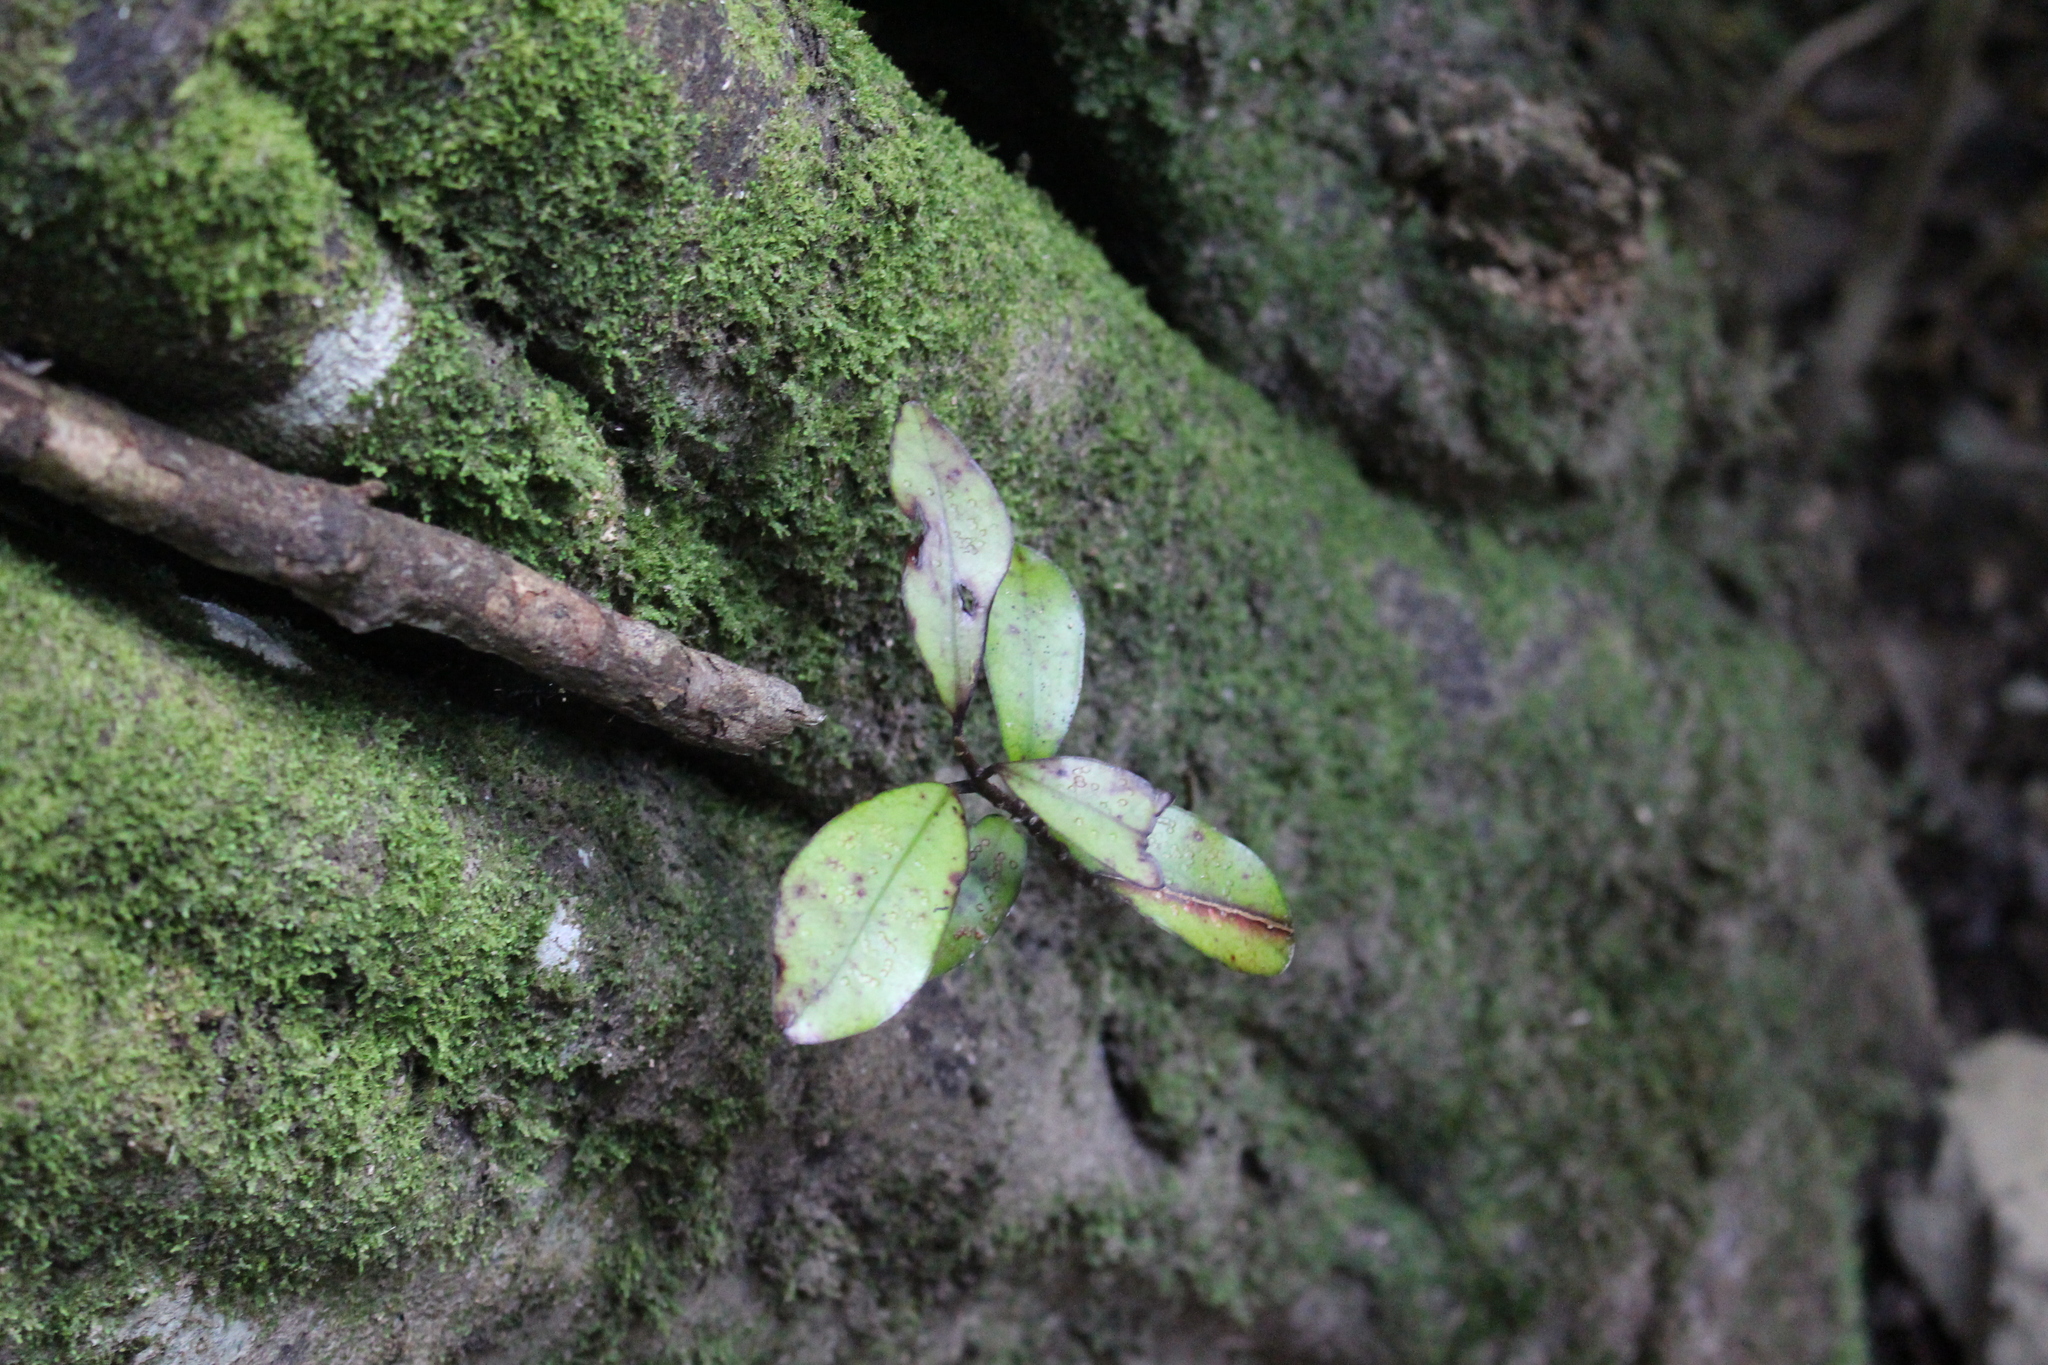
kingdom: Plantae
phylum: Tracheophyta
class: Magnoliopsida
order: Canellales
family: Winteraceae
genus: Pseudowintera
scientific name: Pseudowintera colorata
